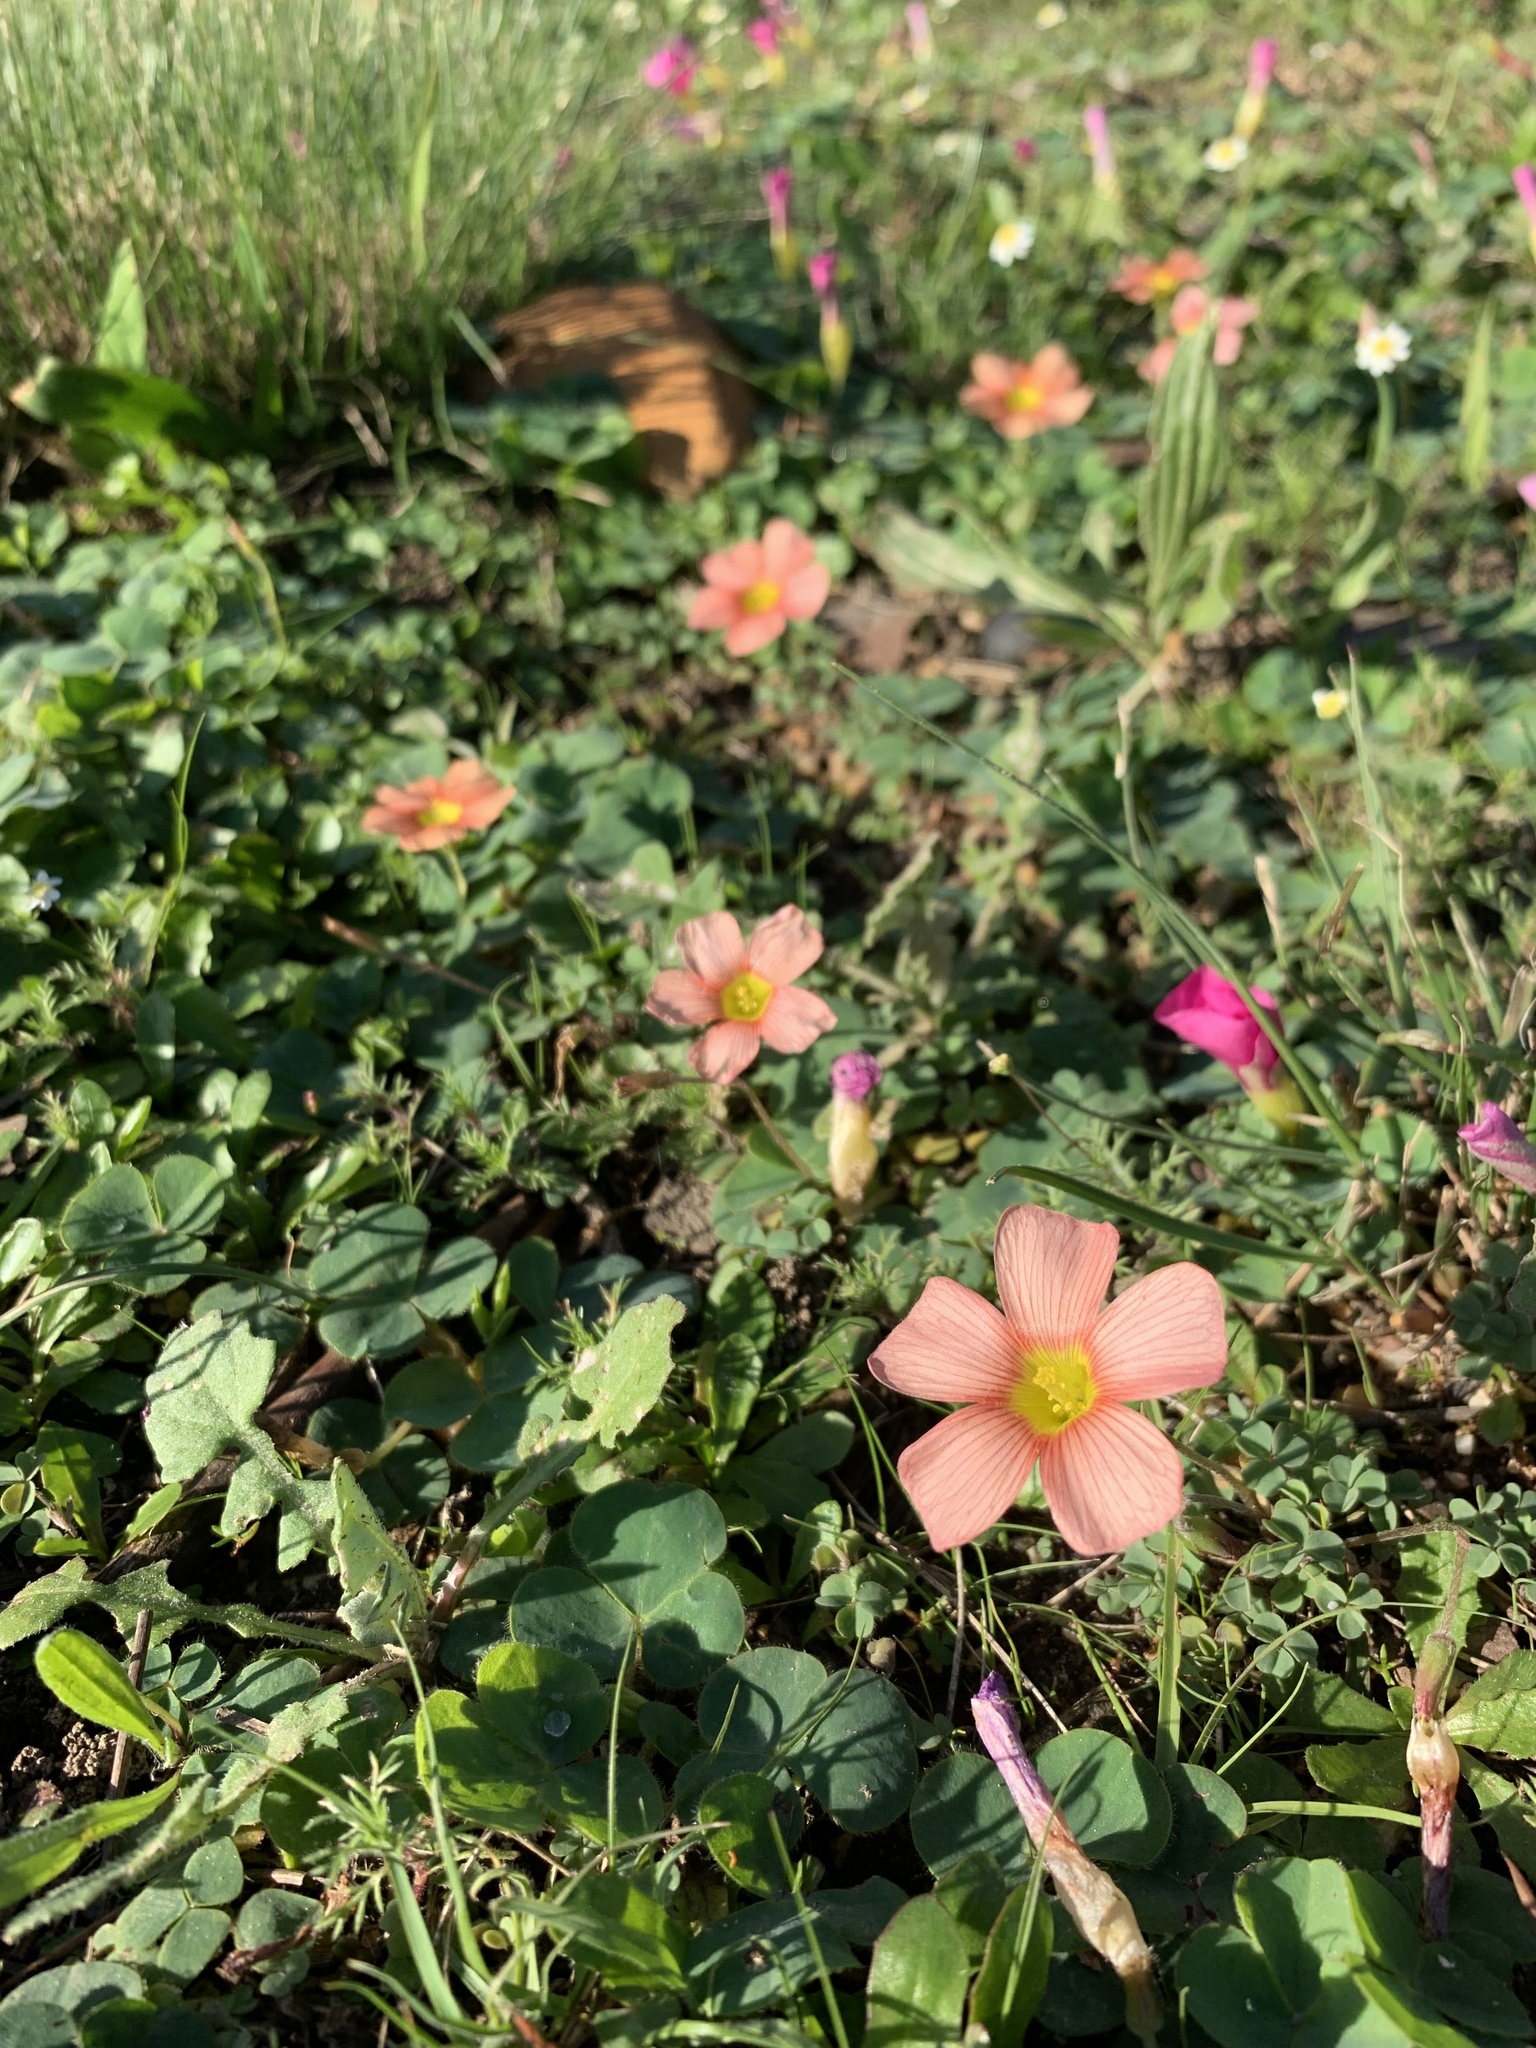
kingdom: Plantae
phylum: Tracheophyta
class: Magnoliopsida
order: Oxalidales
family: Oxalidaceae
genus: Oxalis
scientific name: Oxalis obtusa
